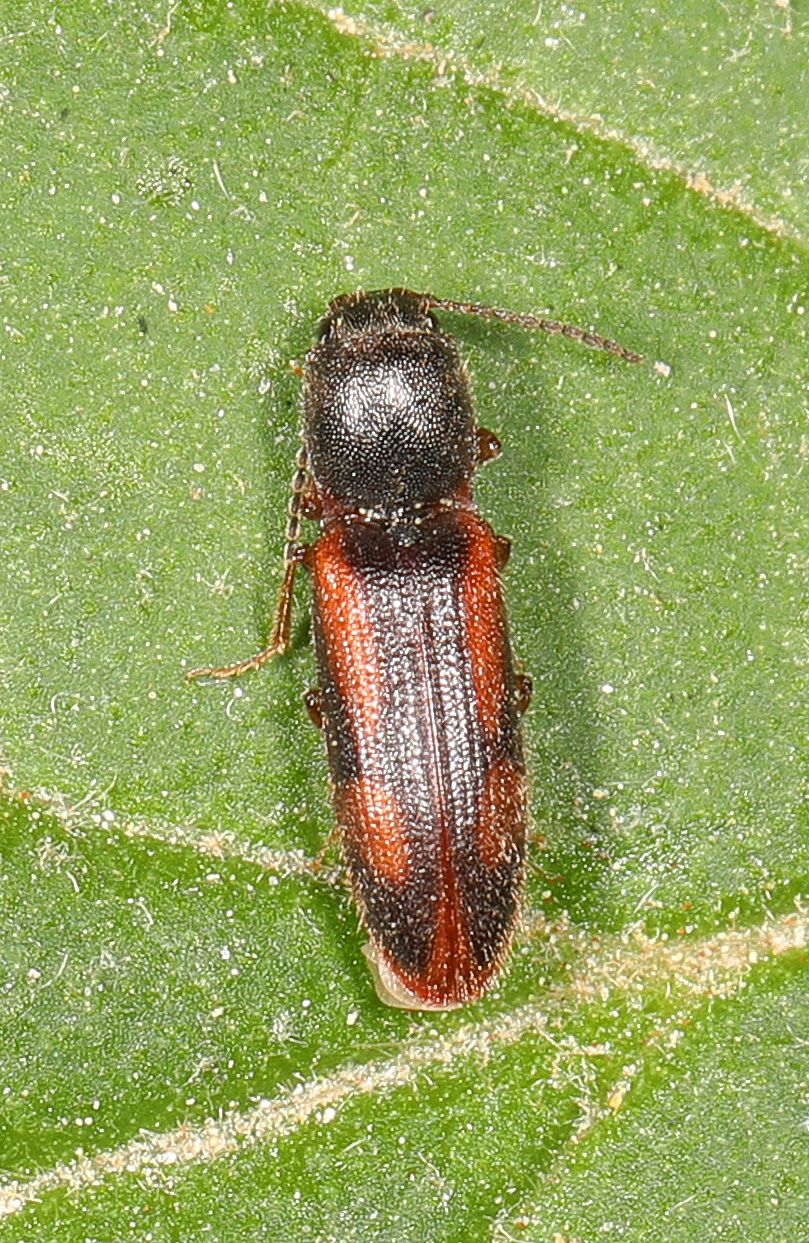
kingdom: Animalia
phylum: Arthropoda
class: Insecta
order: Coleoptera
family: Elateridae
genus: Athous
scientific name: Athous
